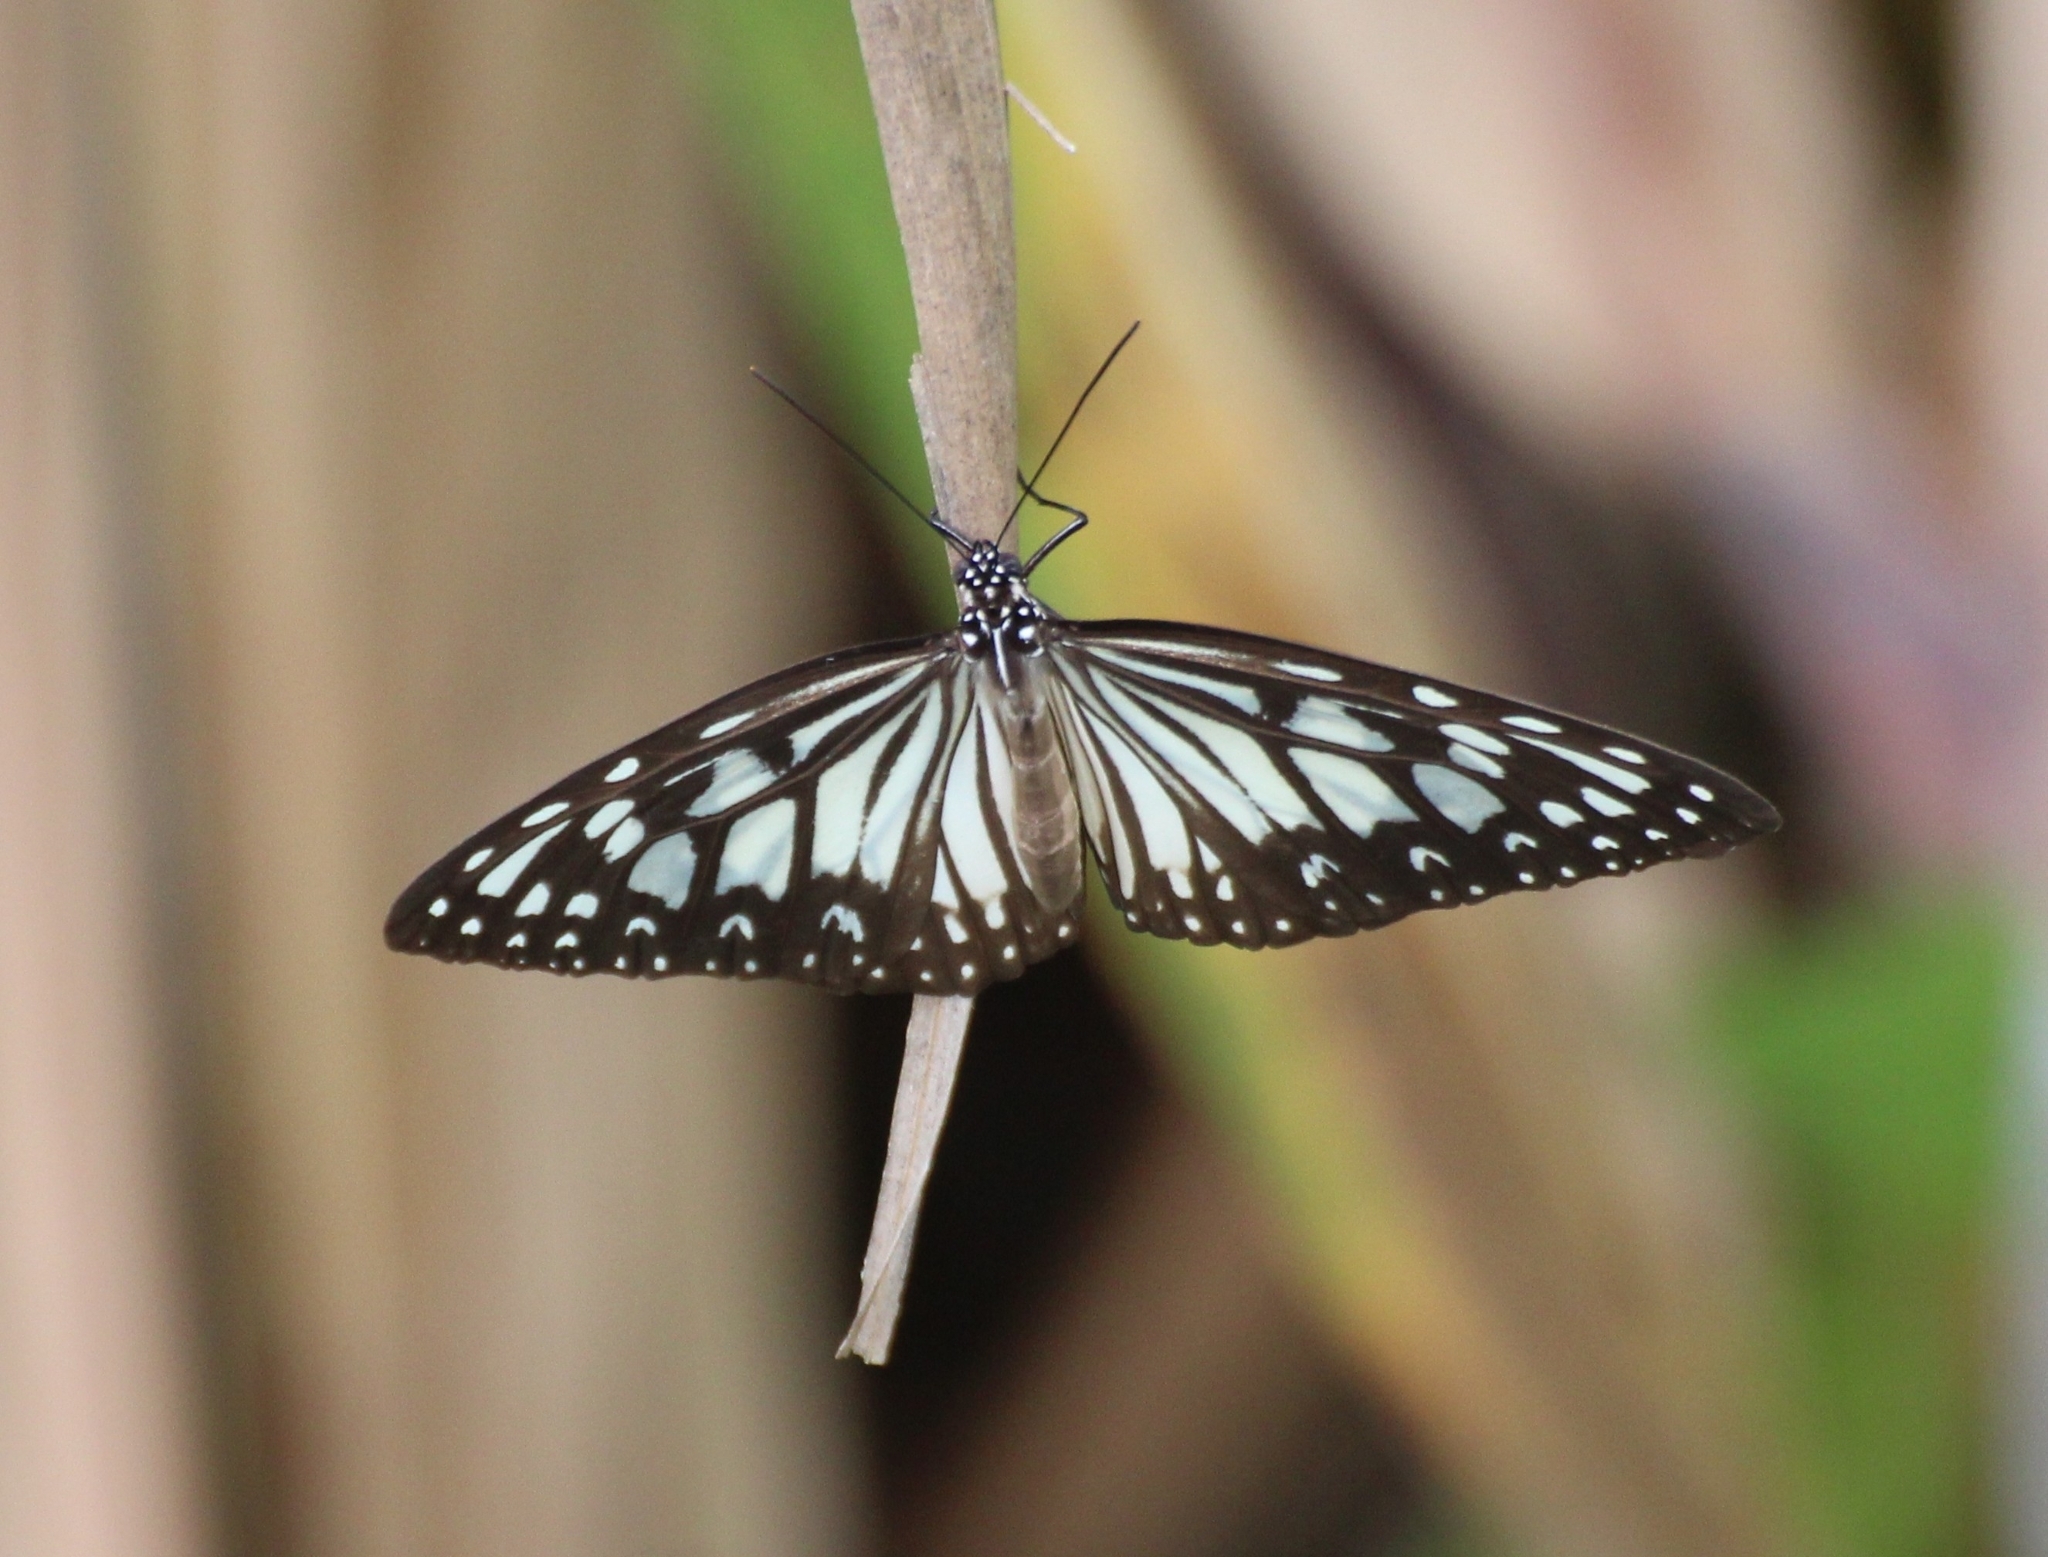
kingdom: Animalia
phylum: Arthropoda
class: Insecta
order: Lepidoptera
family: Nymphalidae
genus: Ideopsis
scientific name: Ideopsis juventa
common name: Grey glassy tiger
